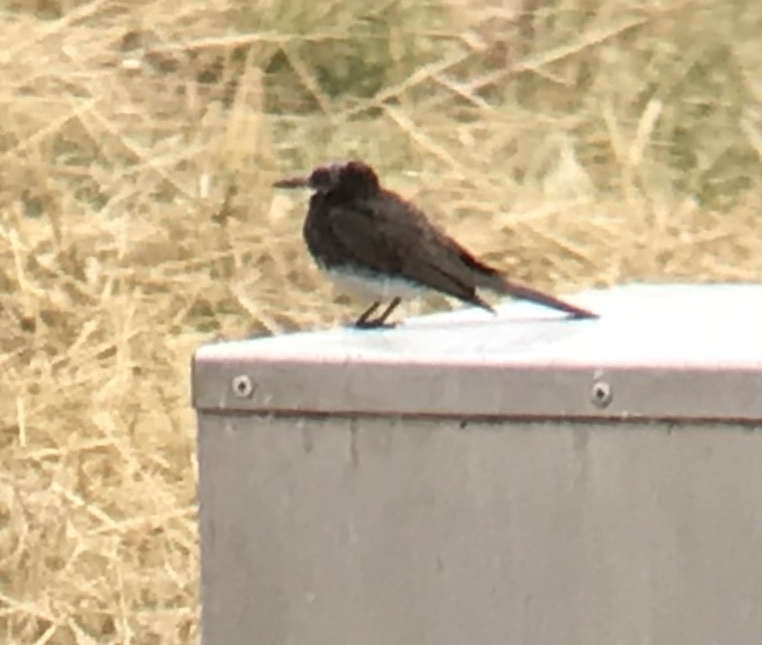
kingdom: Animalia
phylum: Chordata
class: Aves
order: Passeriformes
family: Tyrannidae
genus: Sayornis
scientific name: Sayornis nigricans
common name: Black phoebe
